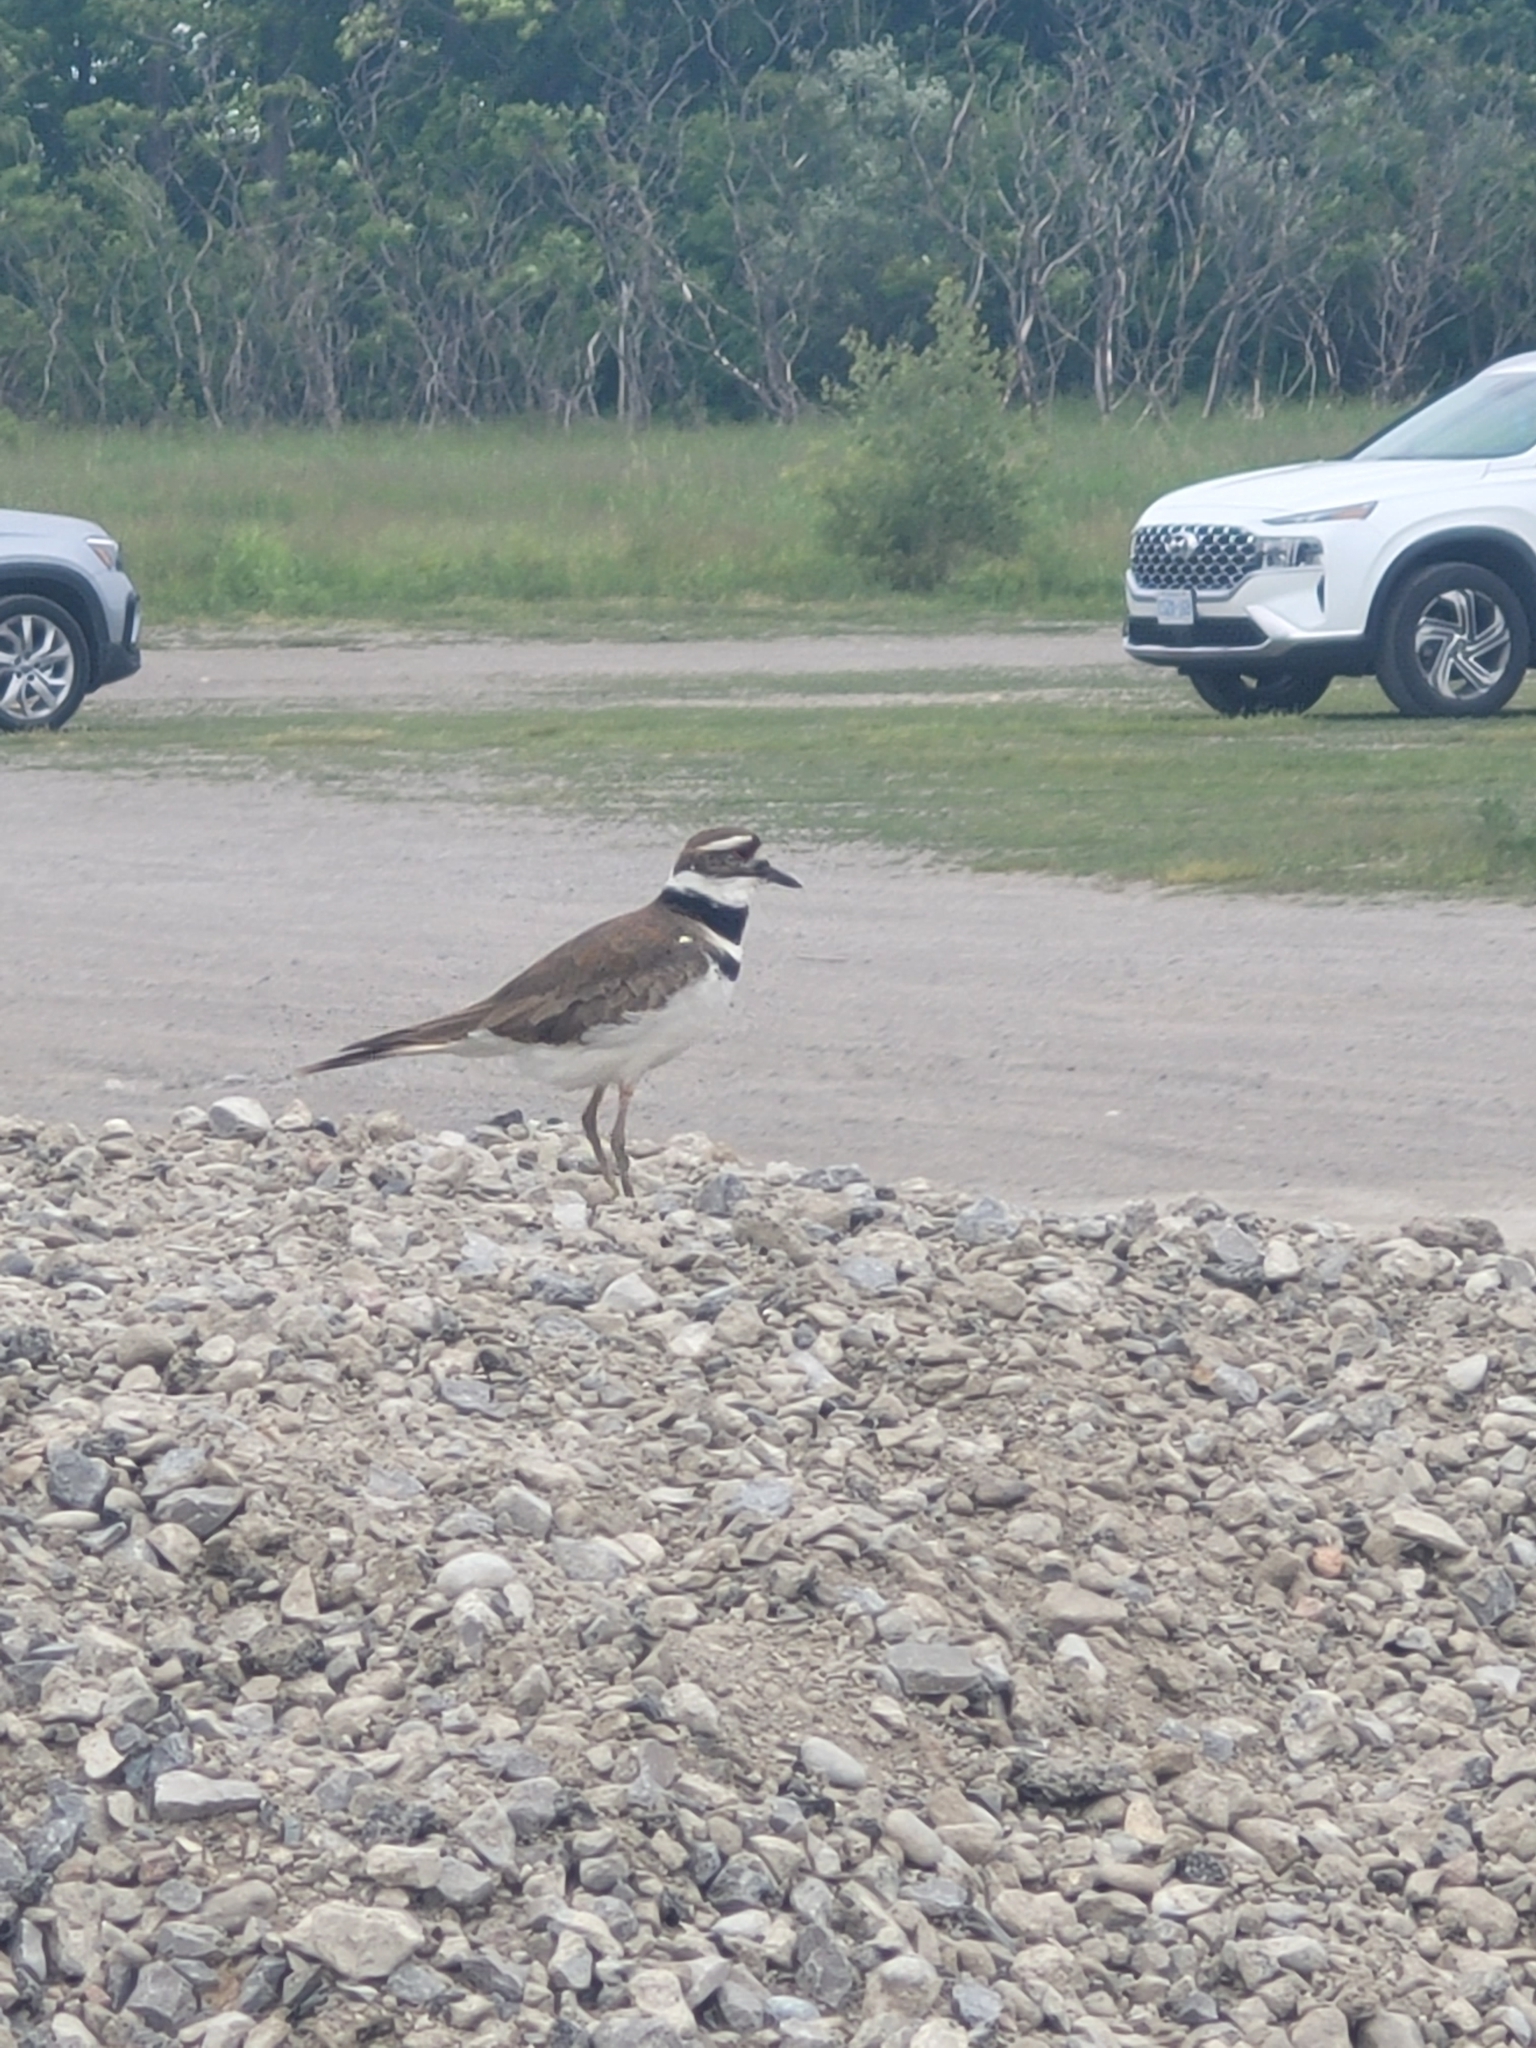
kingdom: Animalia
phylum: Chordata
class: Aves
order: Charadriiformes
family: Charadriidae
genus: Charadrius
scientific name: Charadrius vociferus
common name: Killdeer
